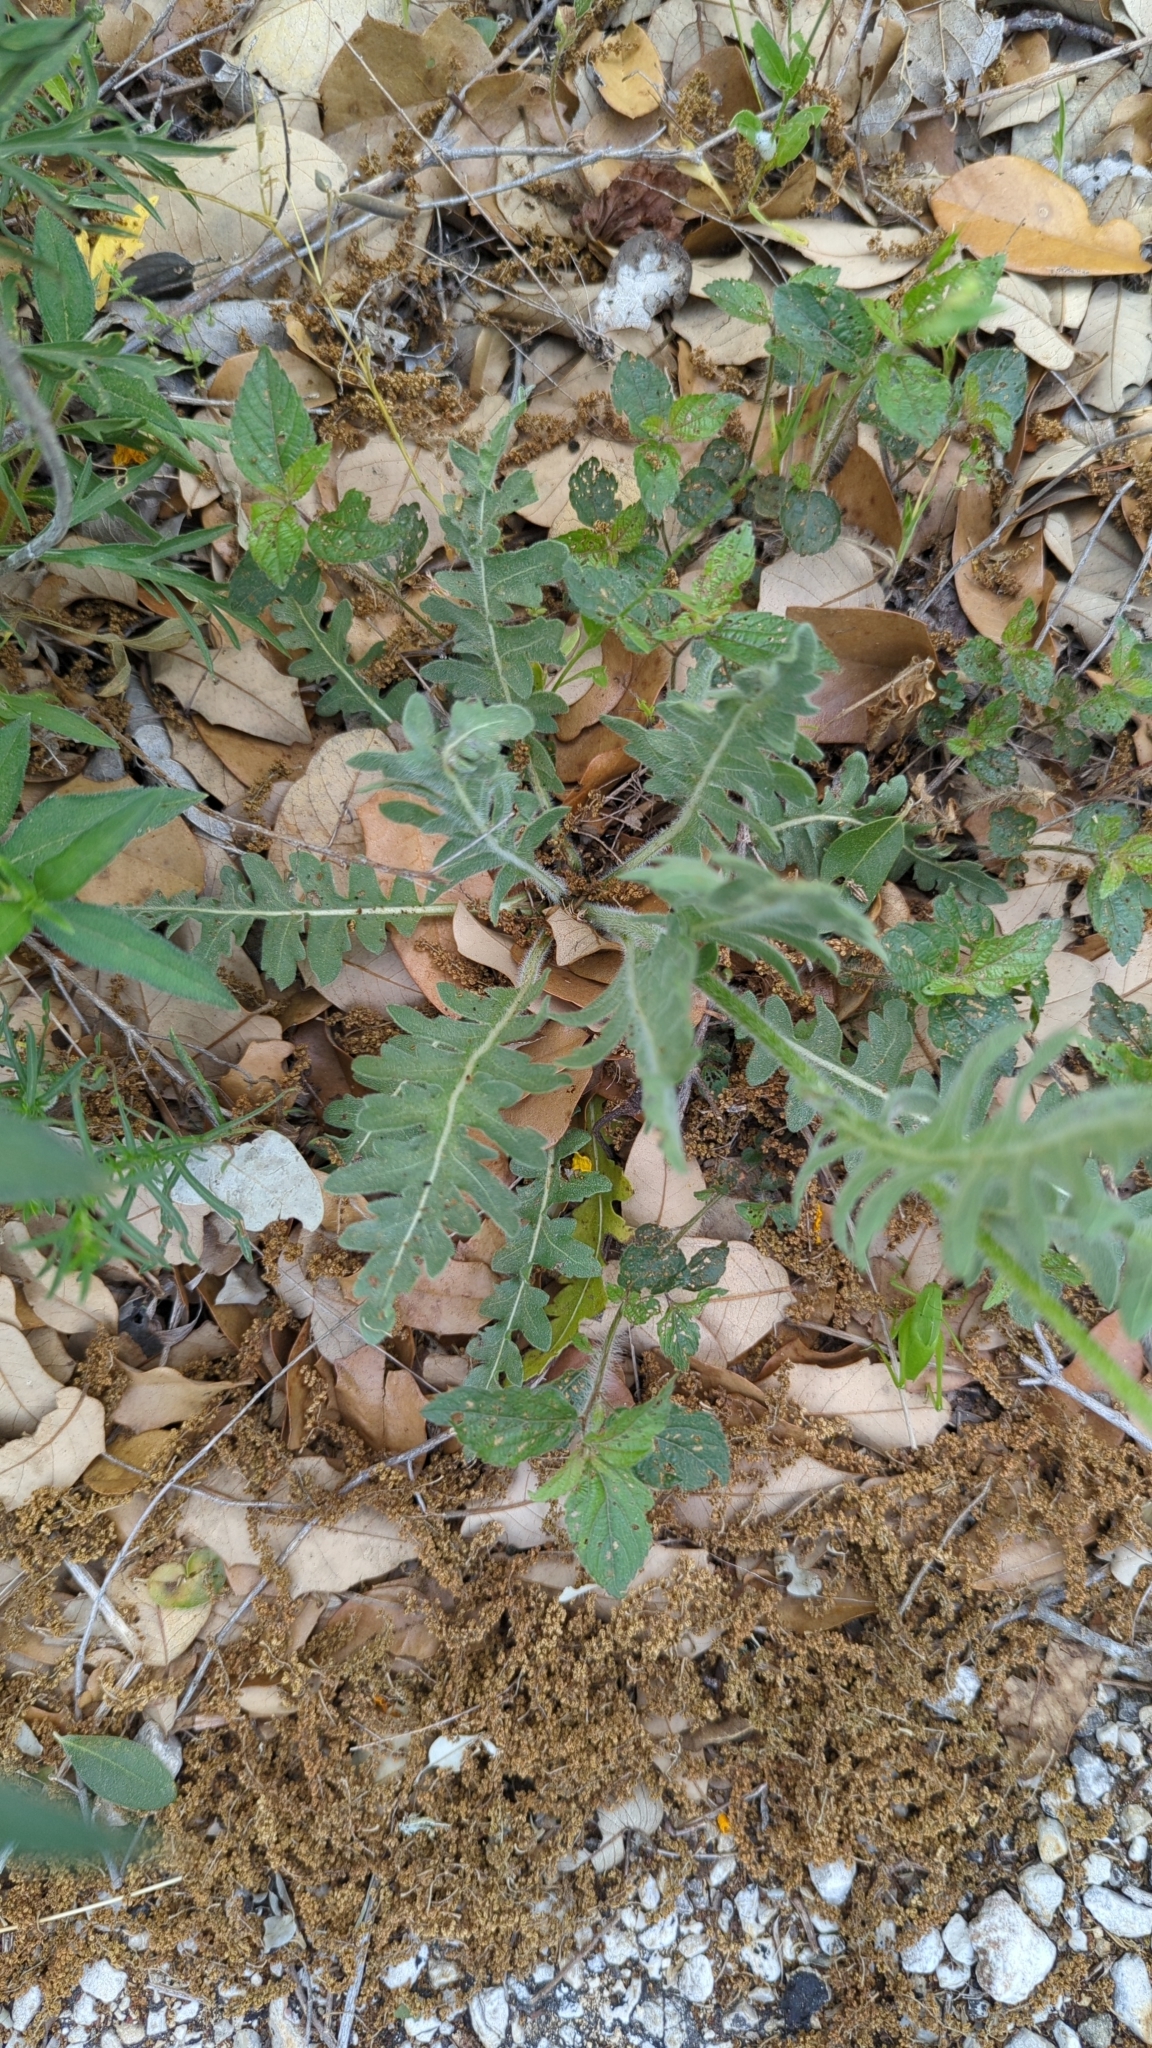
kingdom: Plantae
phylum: Tracheophyta
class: Magnoliopsida
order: Asterales
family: Asteraceae
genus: Engelmannia
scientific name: Engelmannia peristenia
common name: Engelmann's daisy
